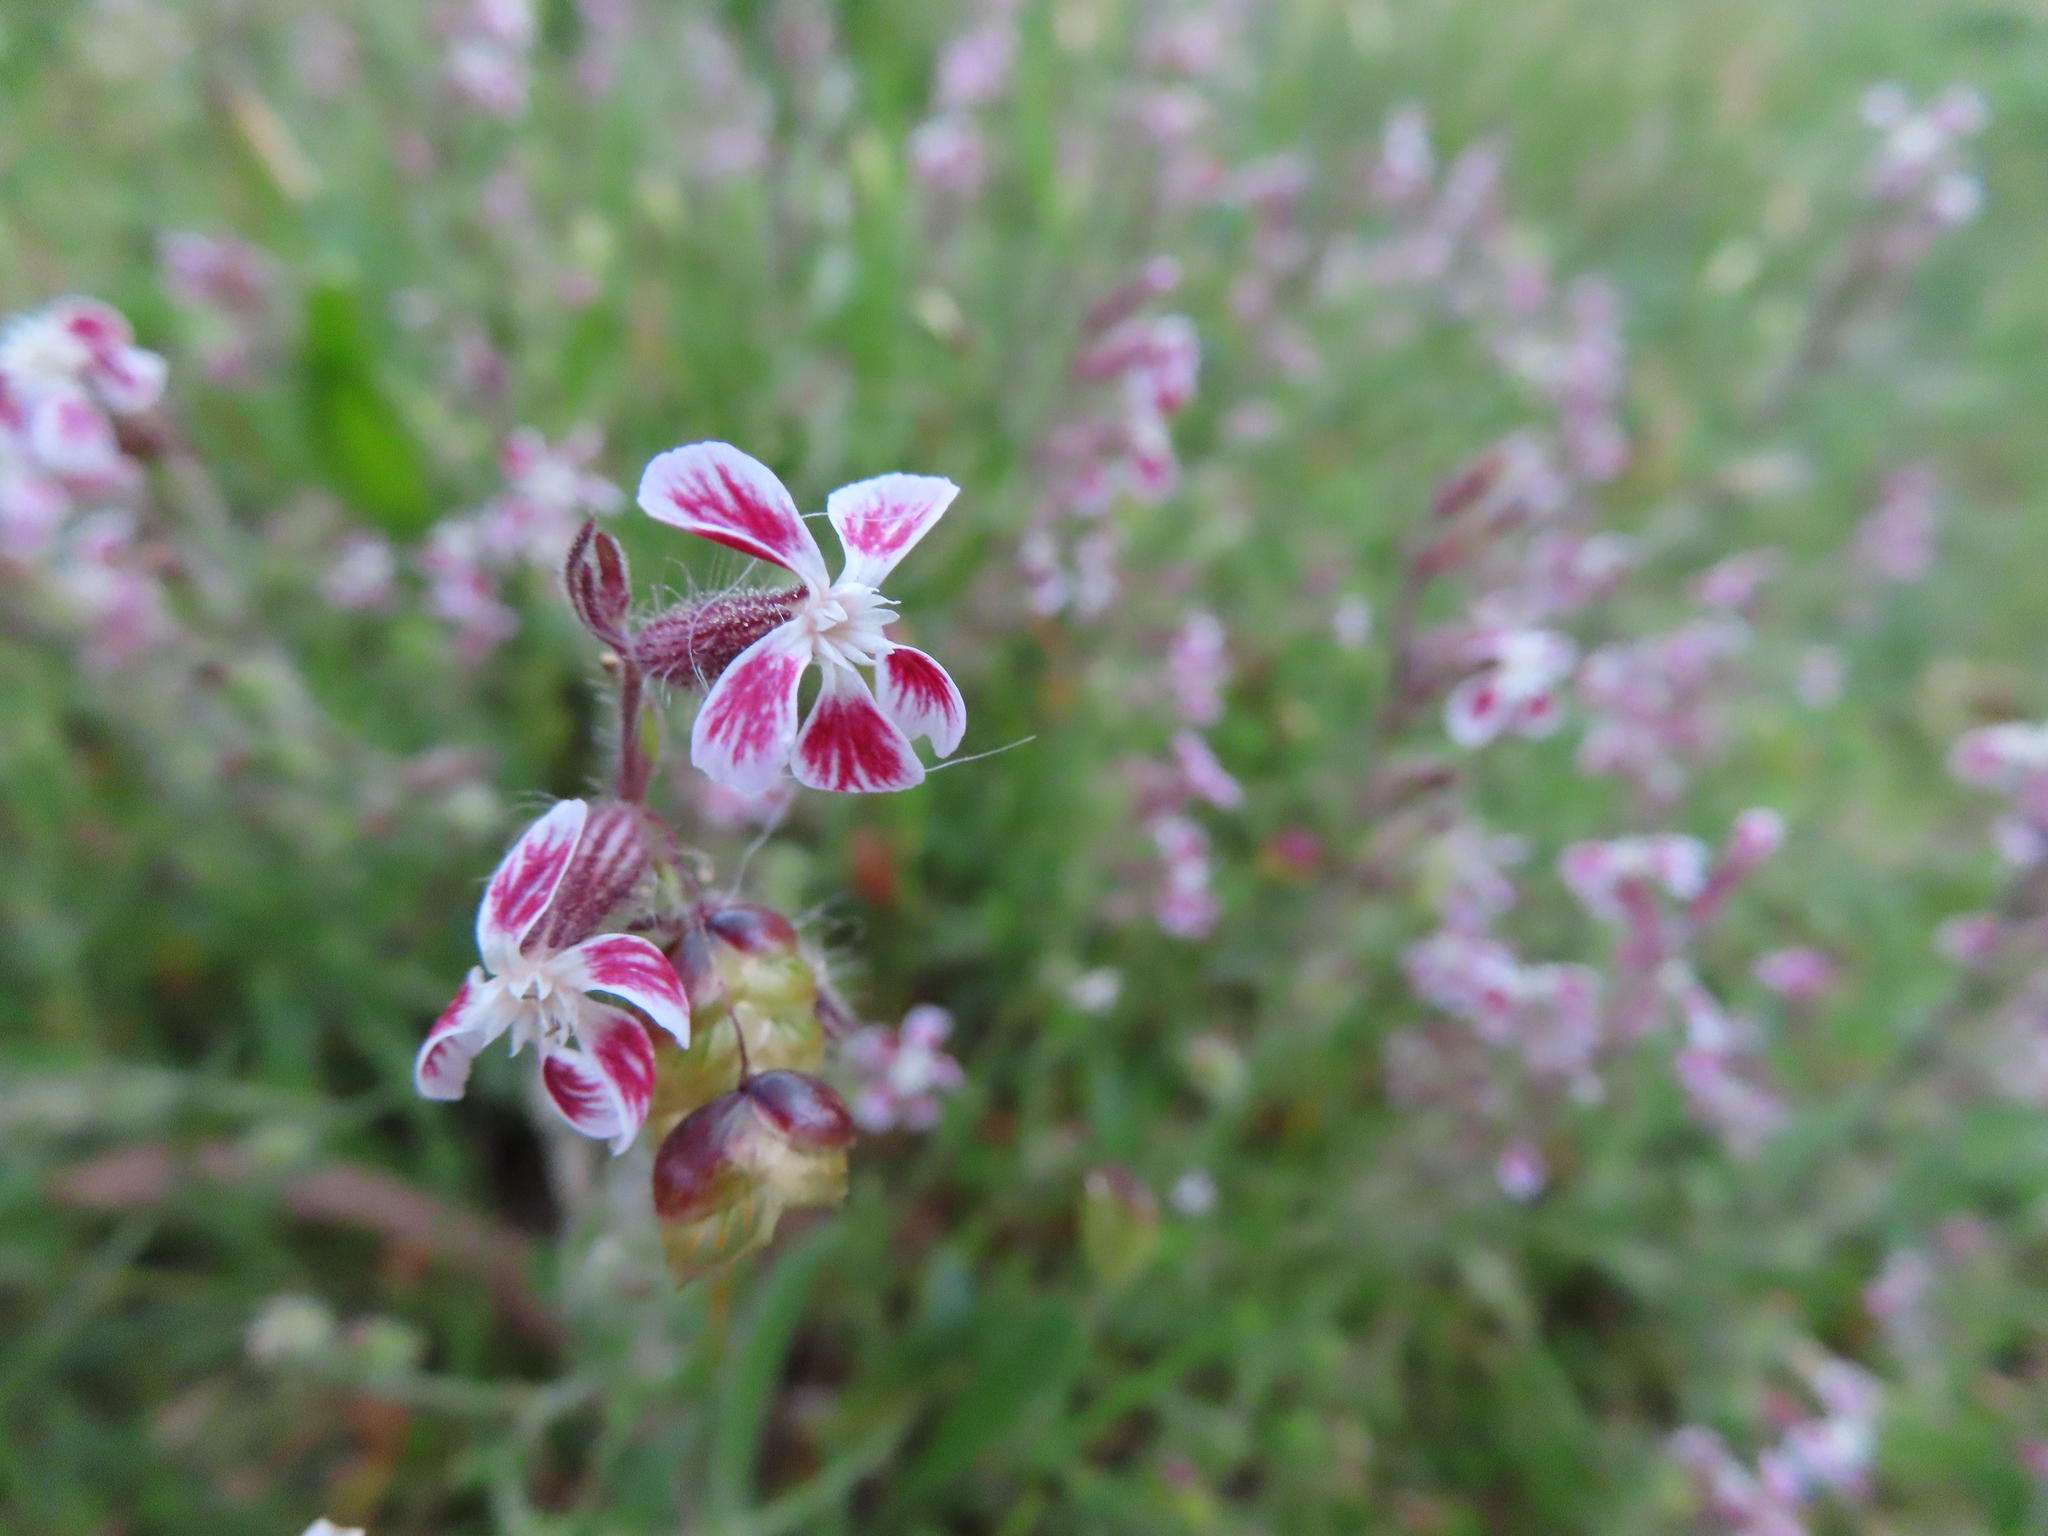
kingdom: Plantae
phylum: Tracheophyta
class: Magnoliopsida
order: Caryophyllales
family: Caryophyllaceae
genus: Silene
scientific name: Silene gallica
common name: Small-flowered catchfly
